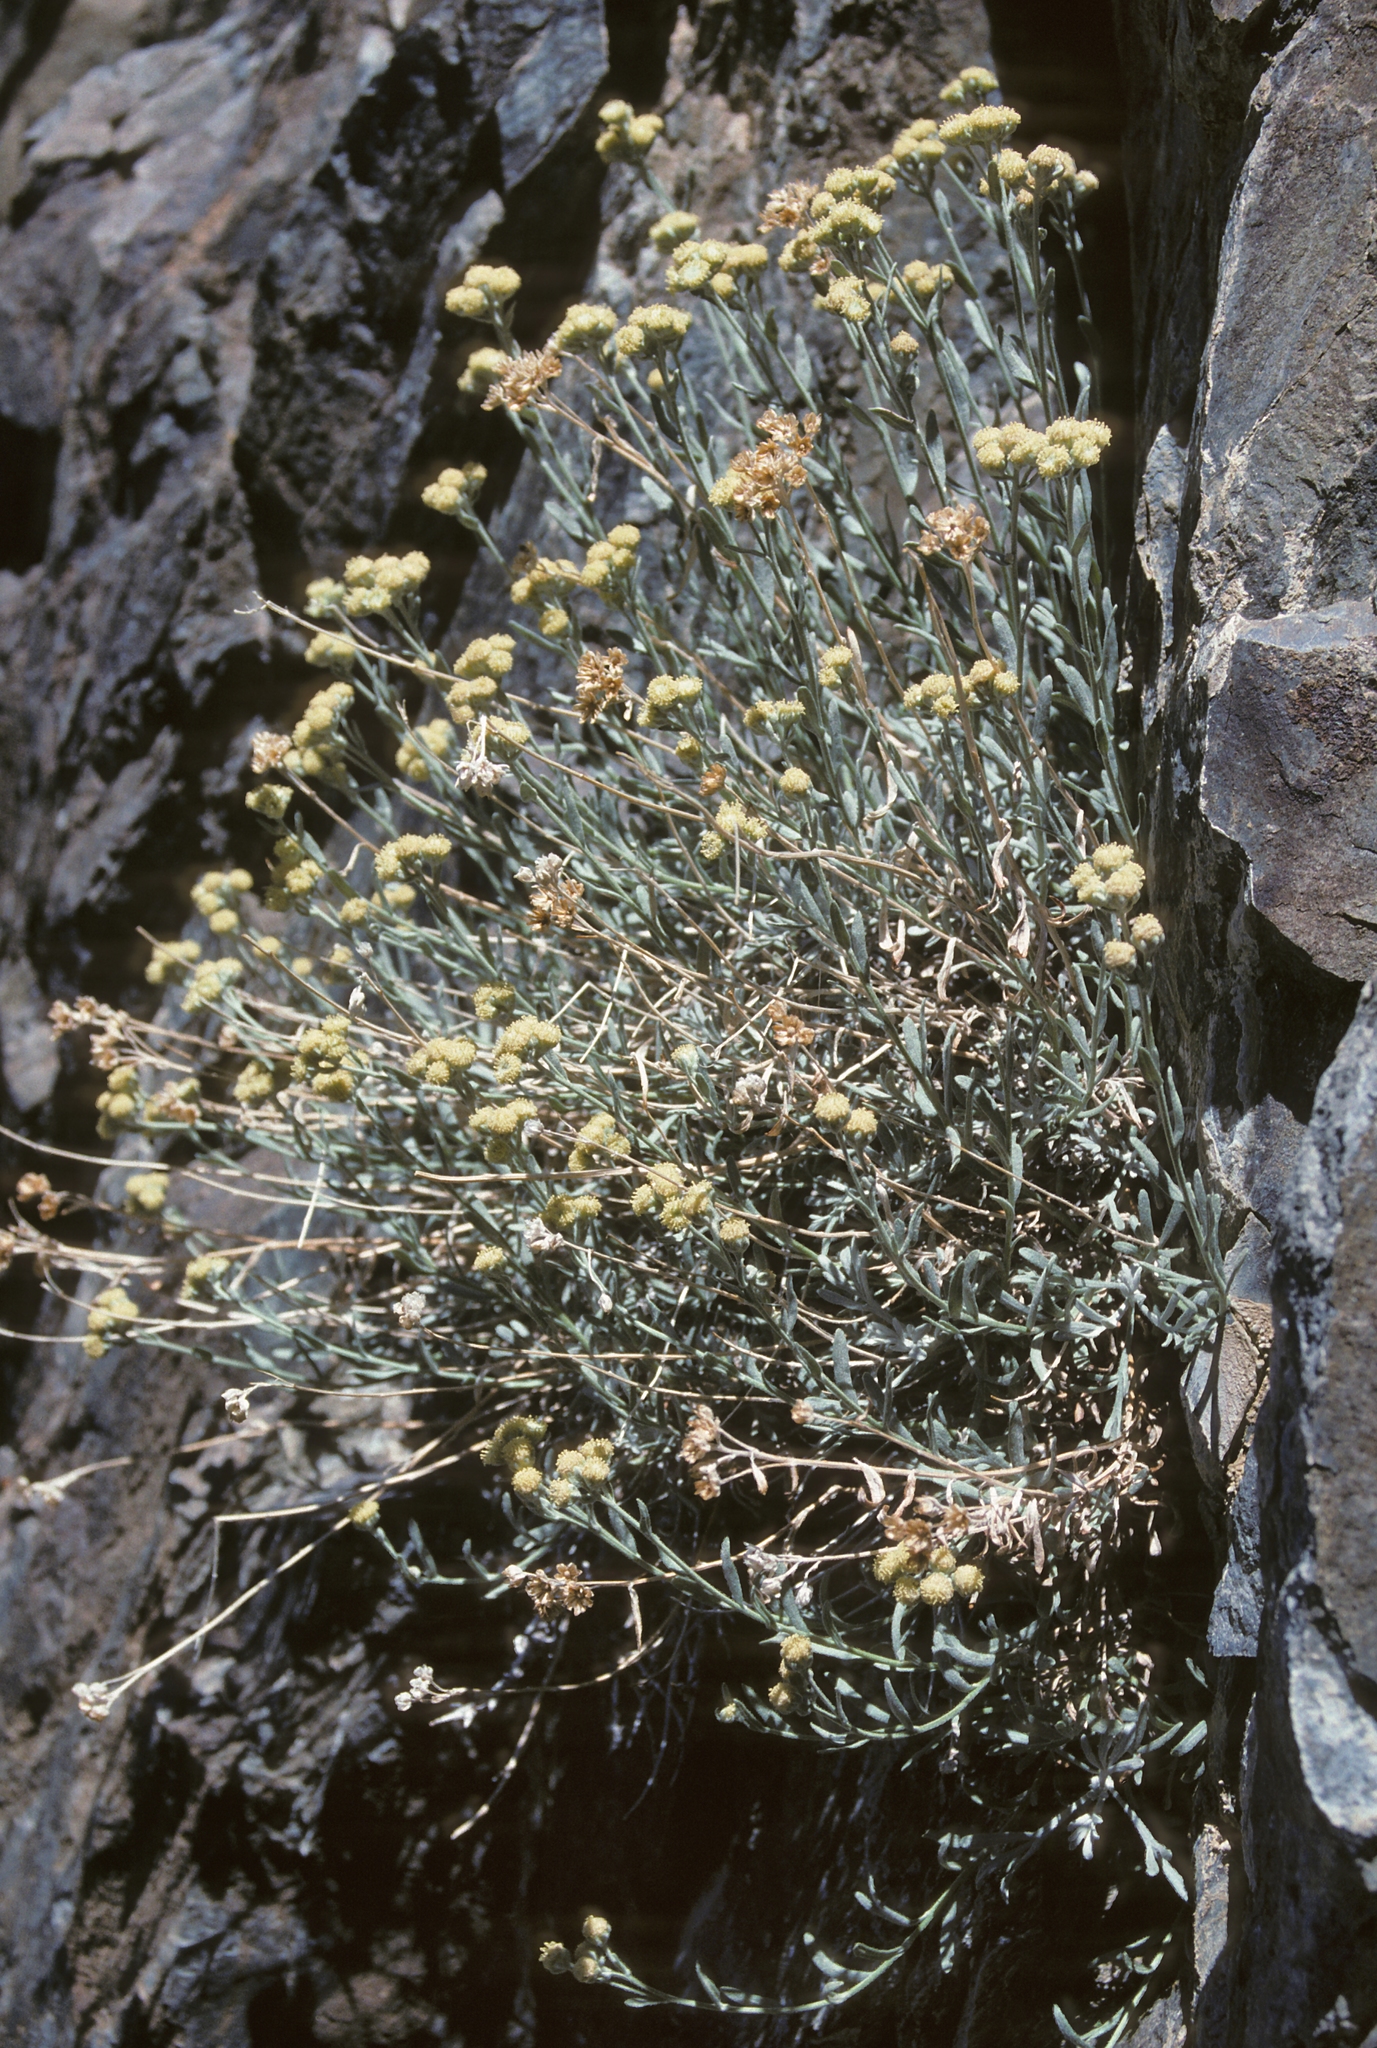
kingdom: Plantae
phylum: Tracheophyta
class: Magnoliopsida
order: Asterales
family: Asteraceae
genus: Artemisia
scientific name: Artemisia albicans
